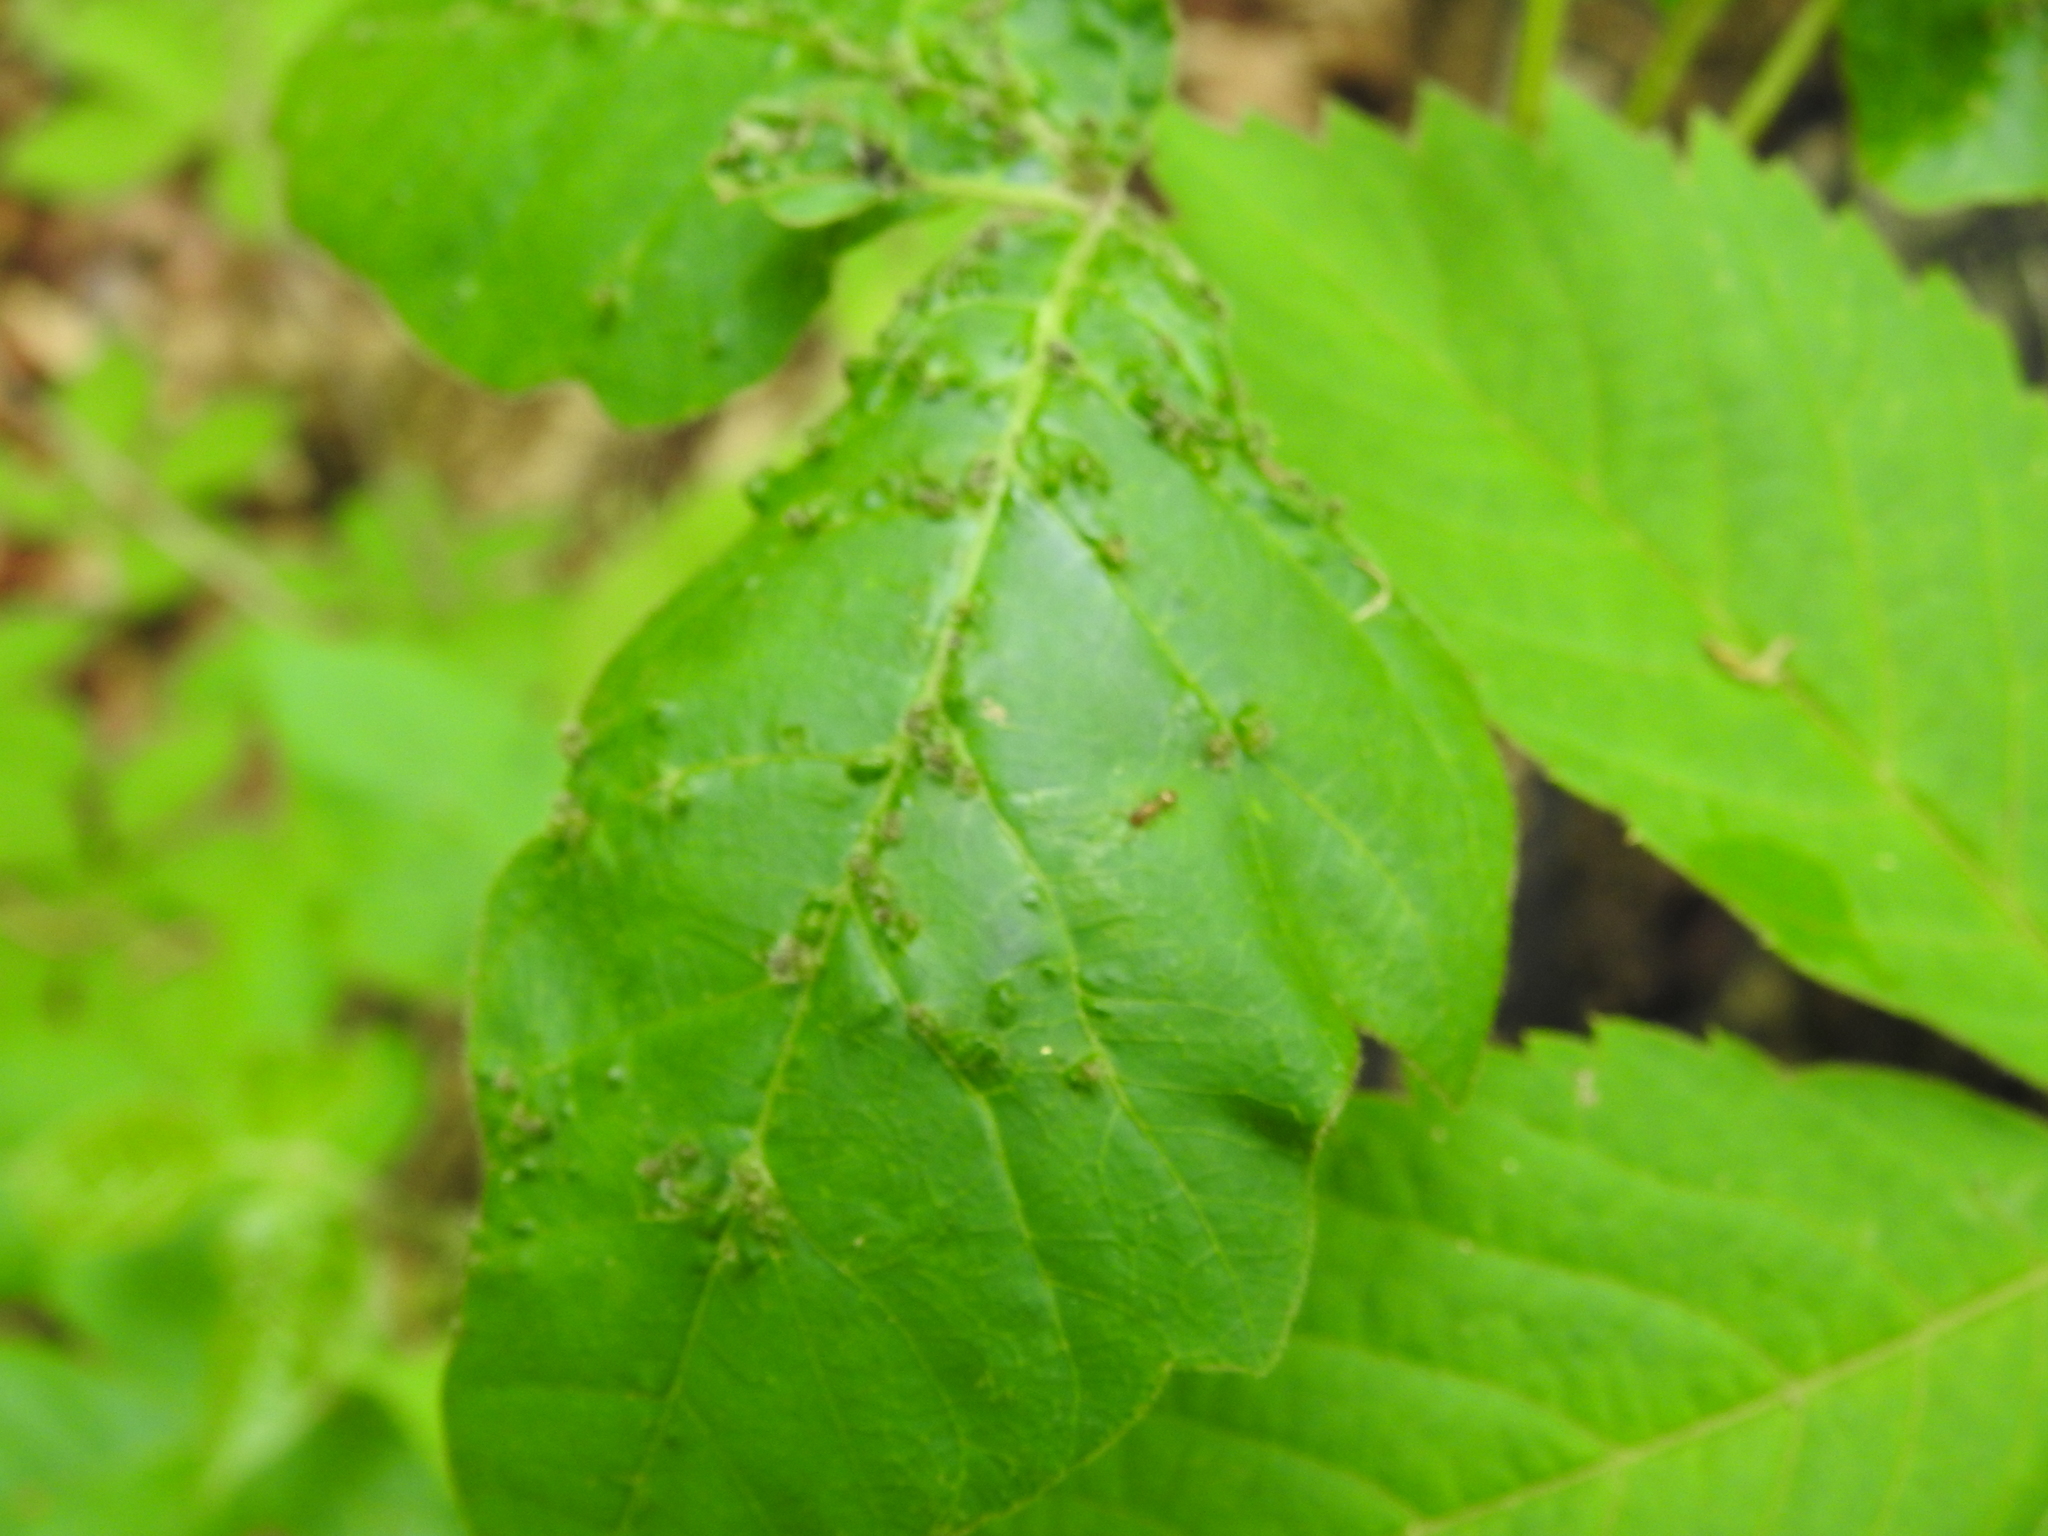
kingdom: Animalia
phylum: Arthropoda
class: Arachnida
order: Trombidiformes
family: Eriophyidae
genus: Aculops
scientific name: Aculops
